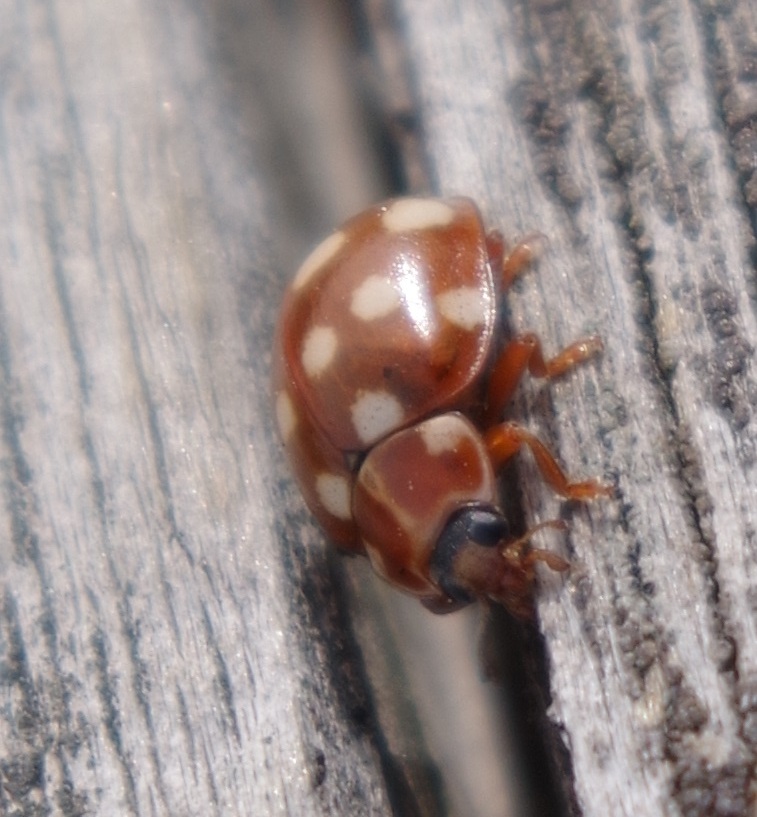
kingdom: Animalia
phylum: Arthropoda
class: Insecta
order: Coleoptera
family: Coccinellidae
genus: Calvia
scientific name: Calvia quatuordecimguttata
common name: Cream-spot ladybird
